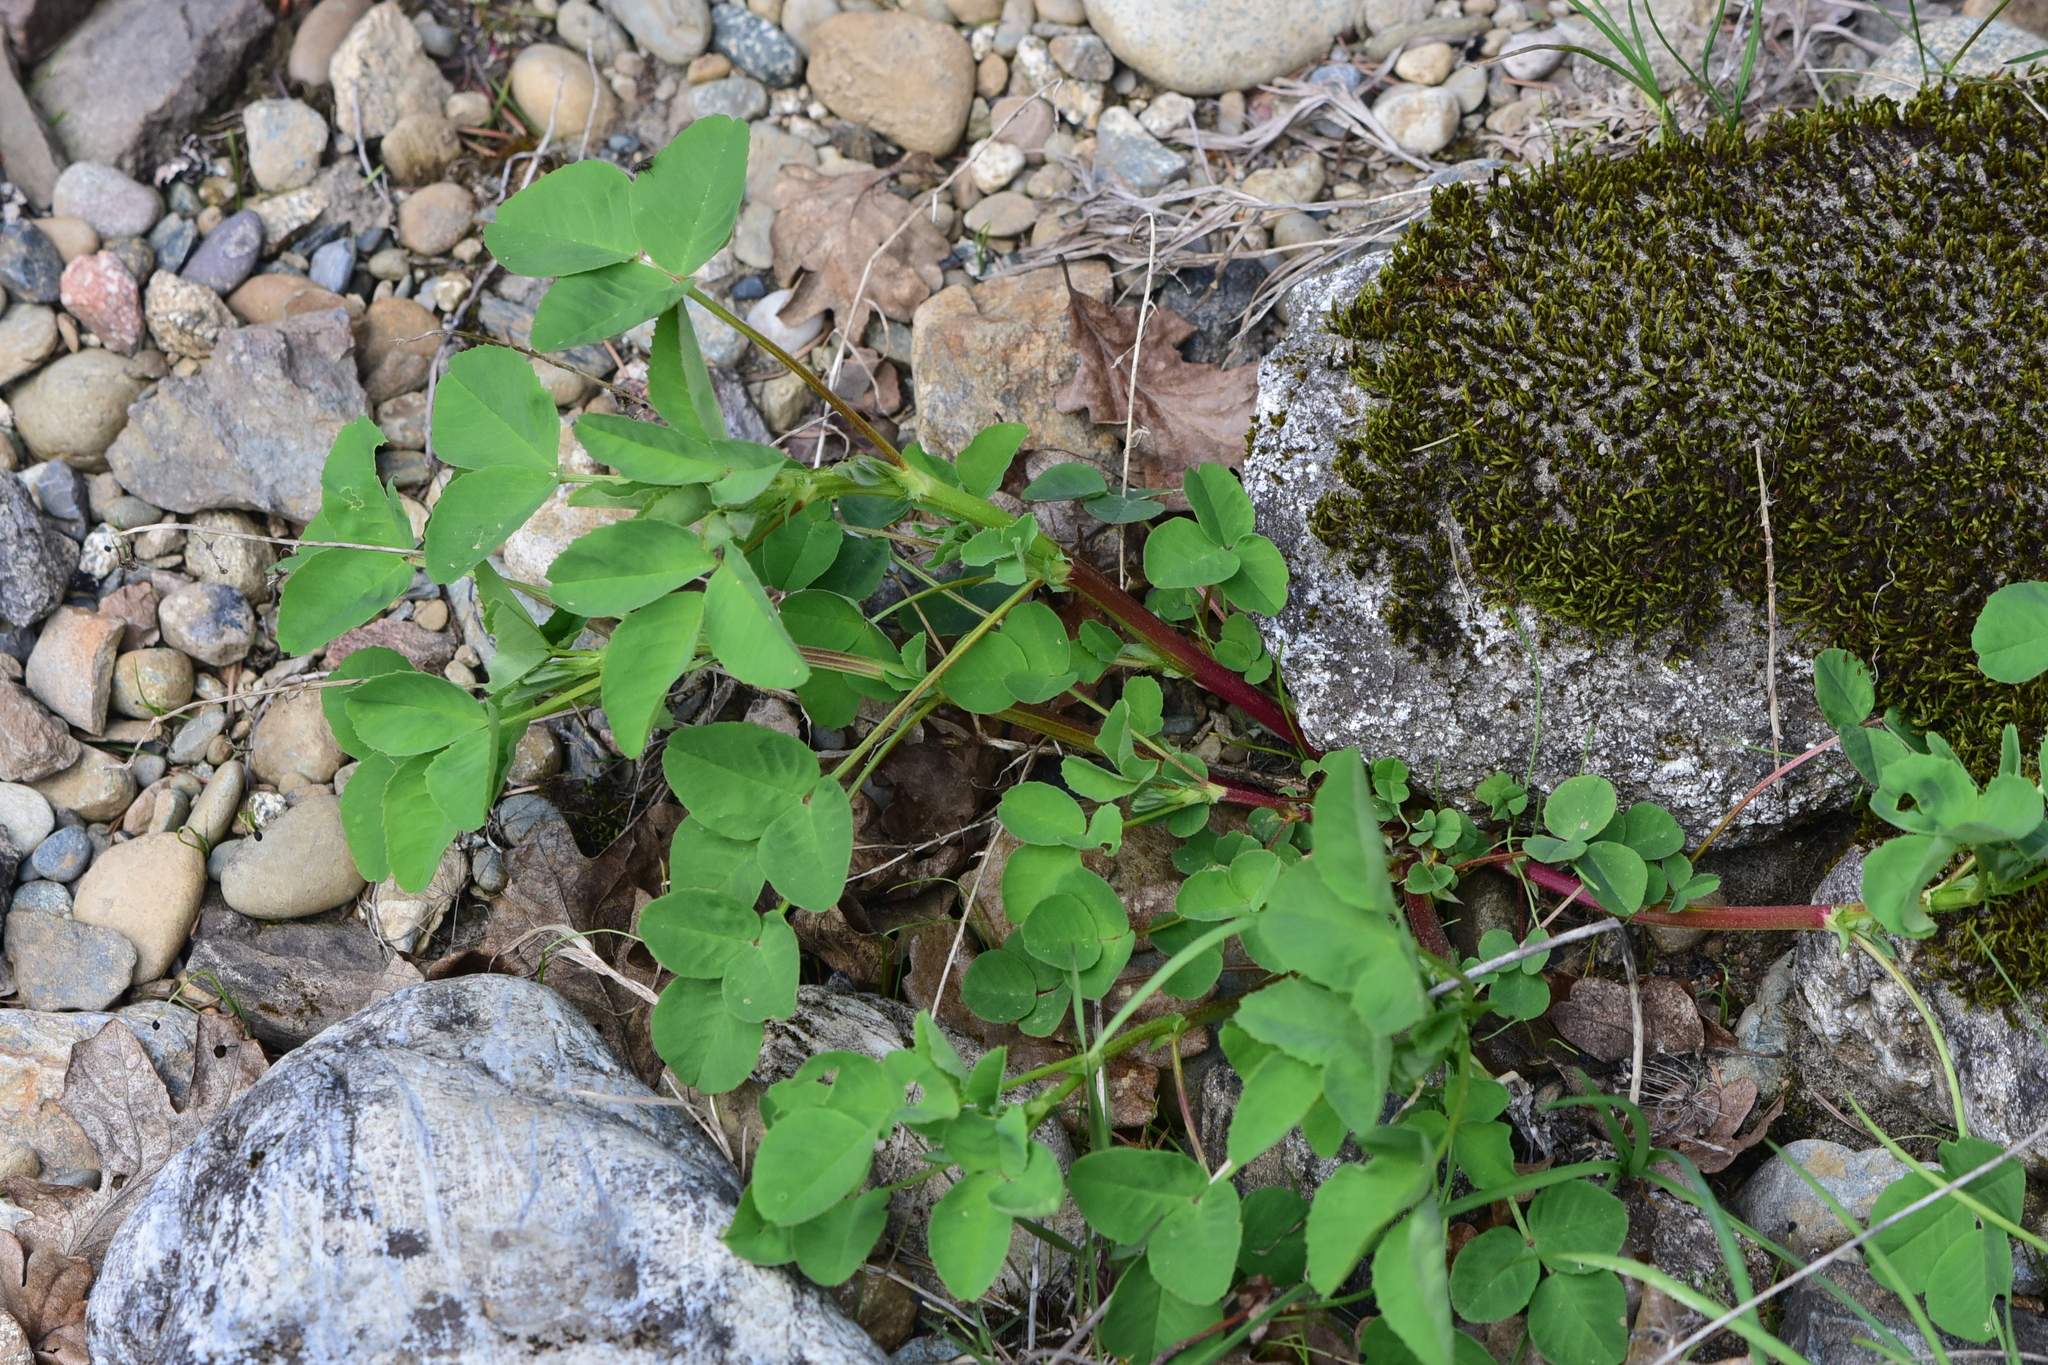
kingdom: Plantae
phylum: Tracheophyta
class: Magnoliopsida
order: Fabales
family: Fabaceae
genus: Melilotus
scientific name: Melilotus
